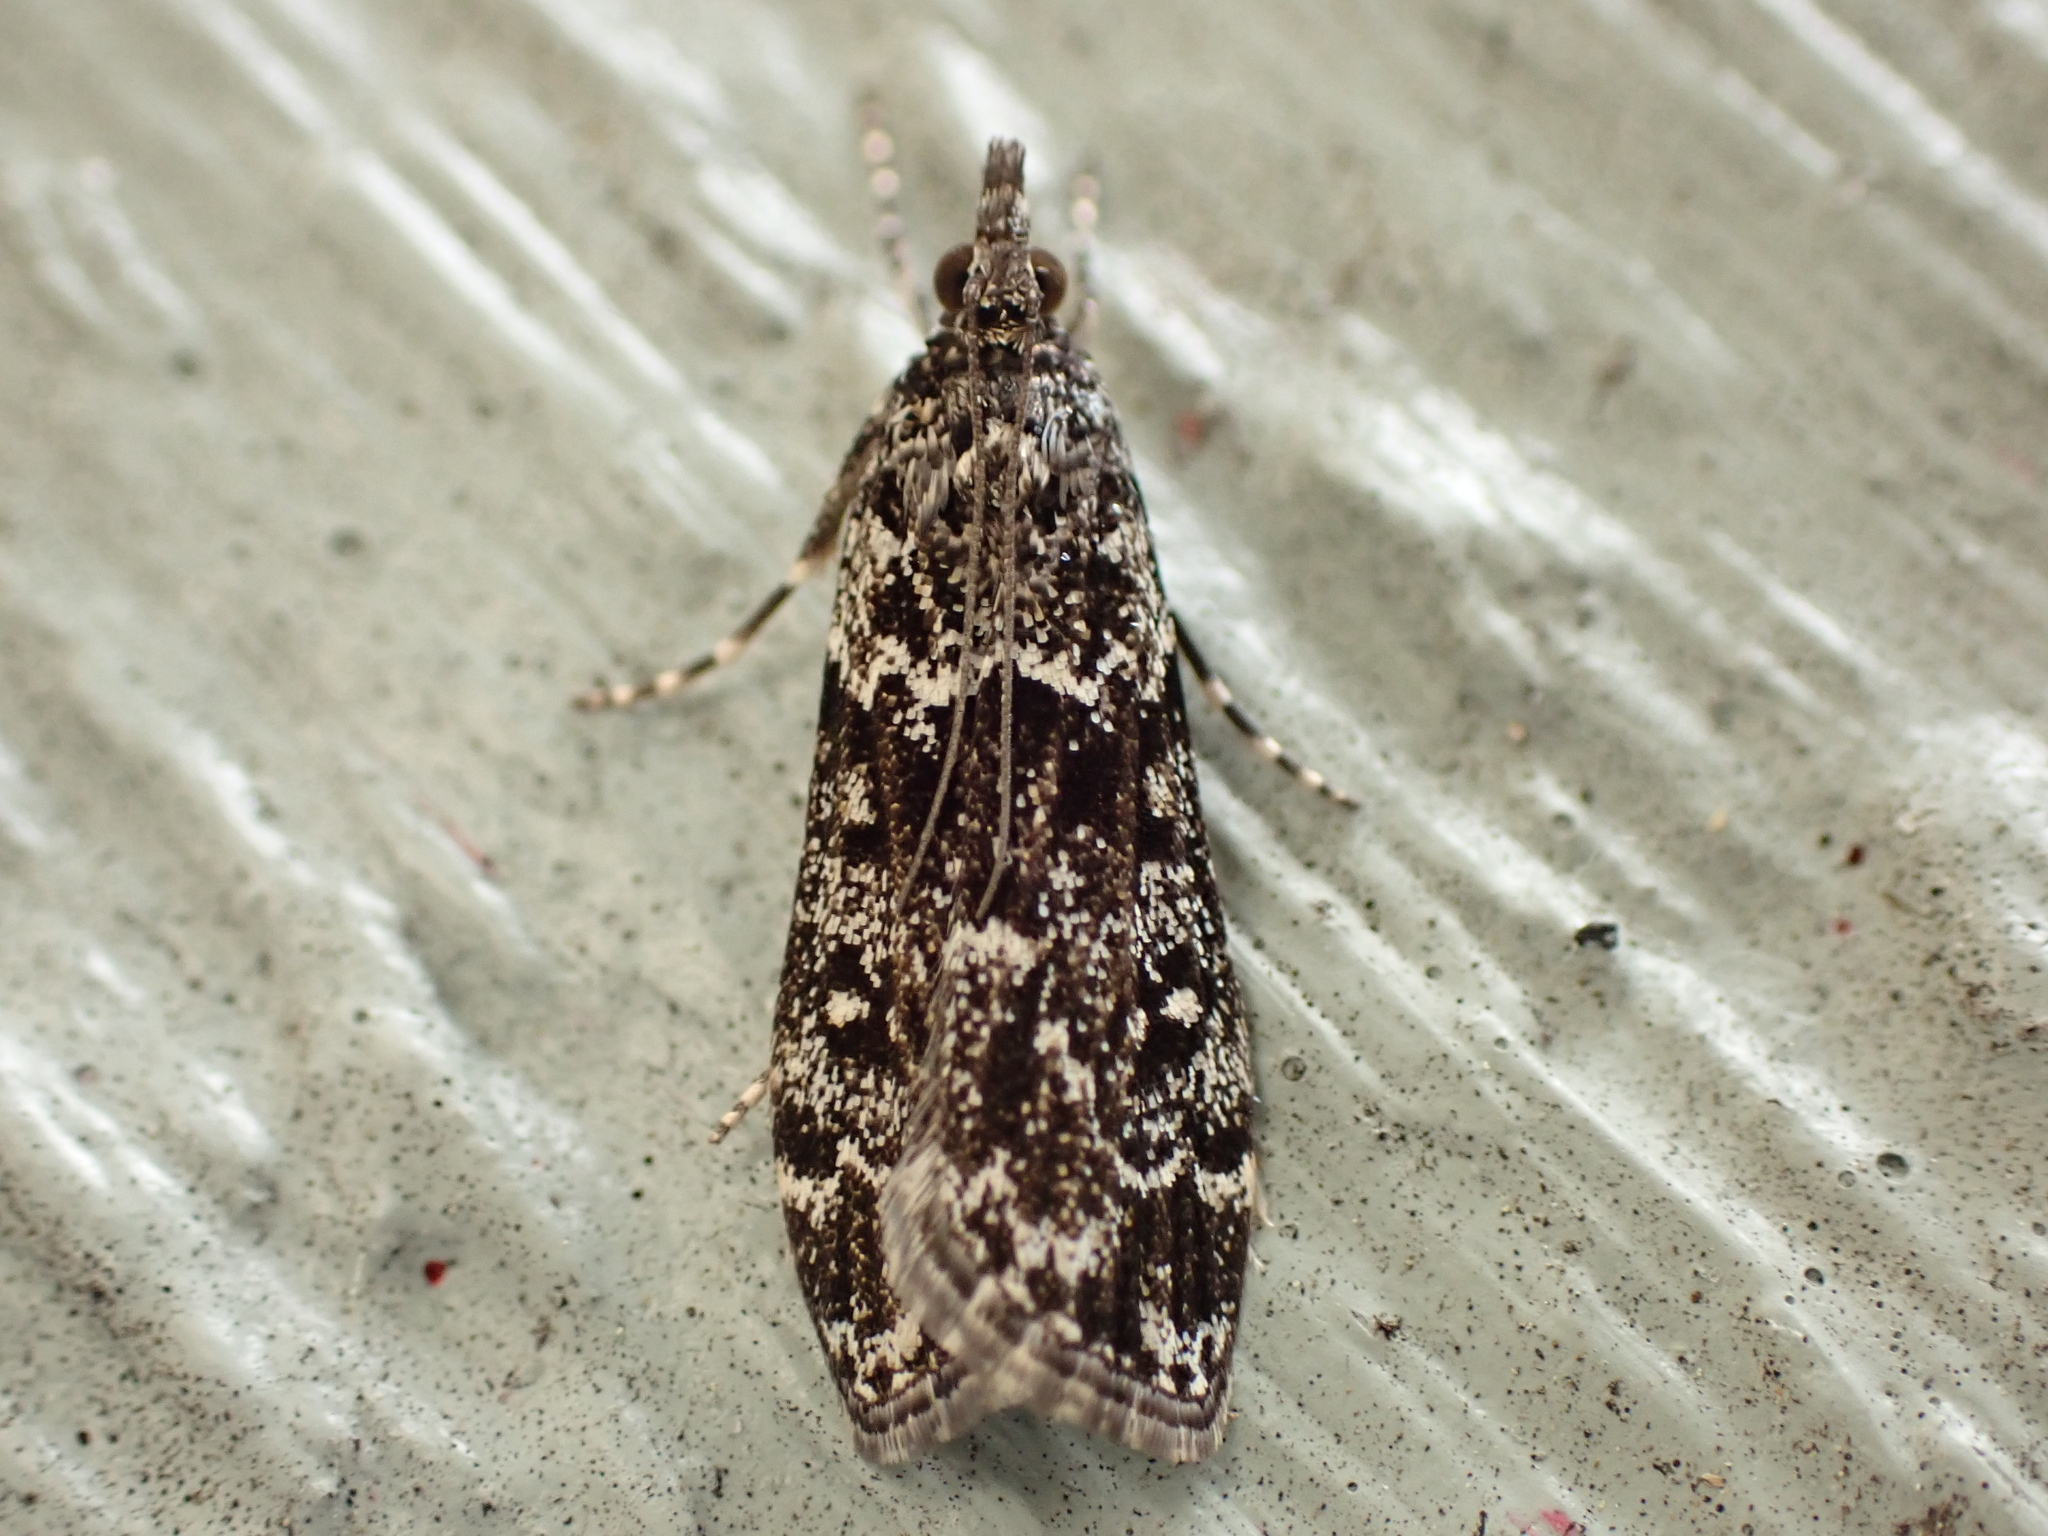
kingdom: Animalia
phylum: Arthropoda
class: Insecta
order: Lepidoptera
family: Crambidae
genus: Eudonia
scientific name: Eudonia philerga
